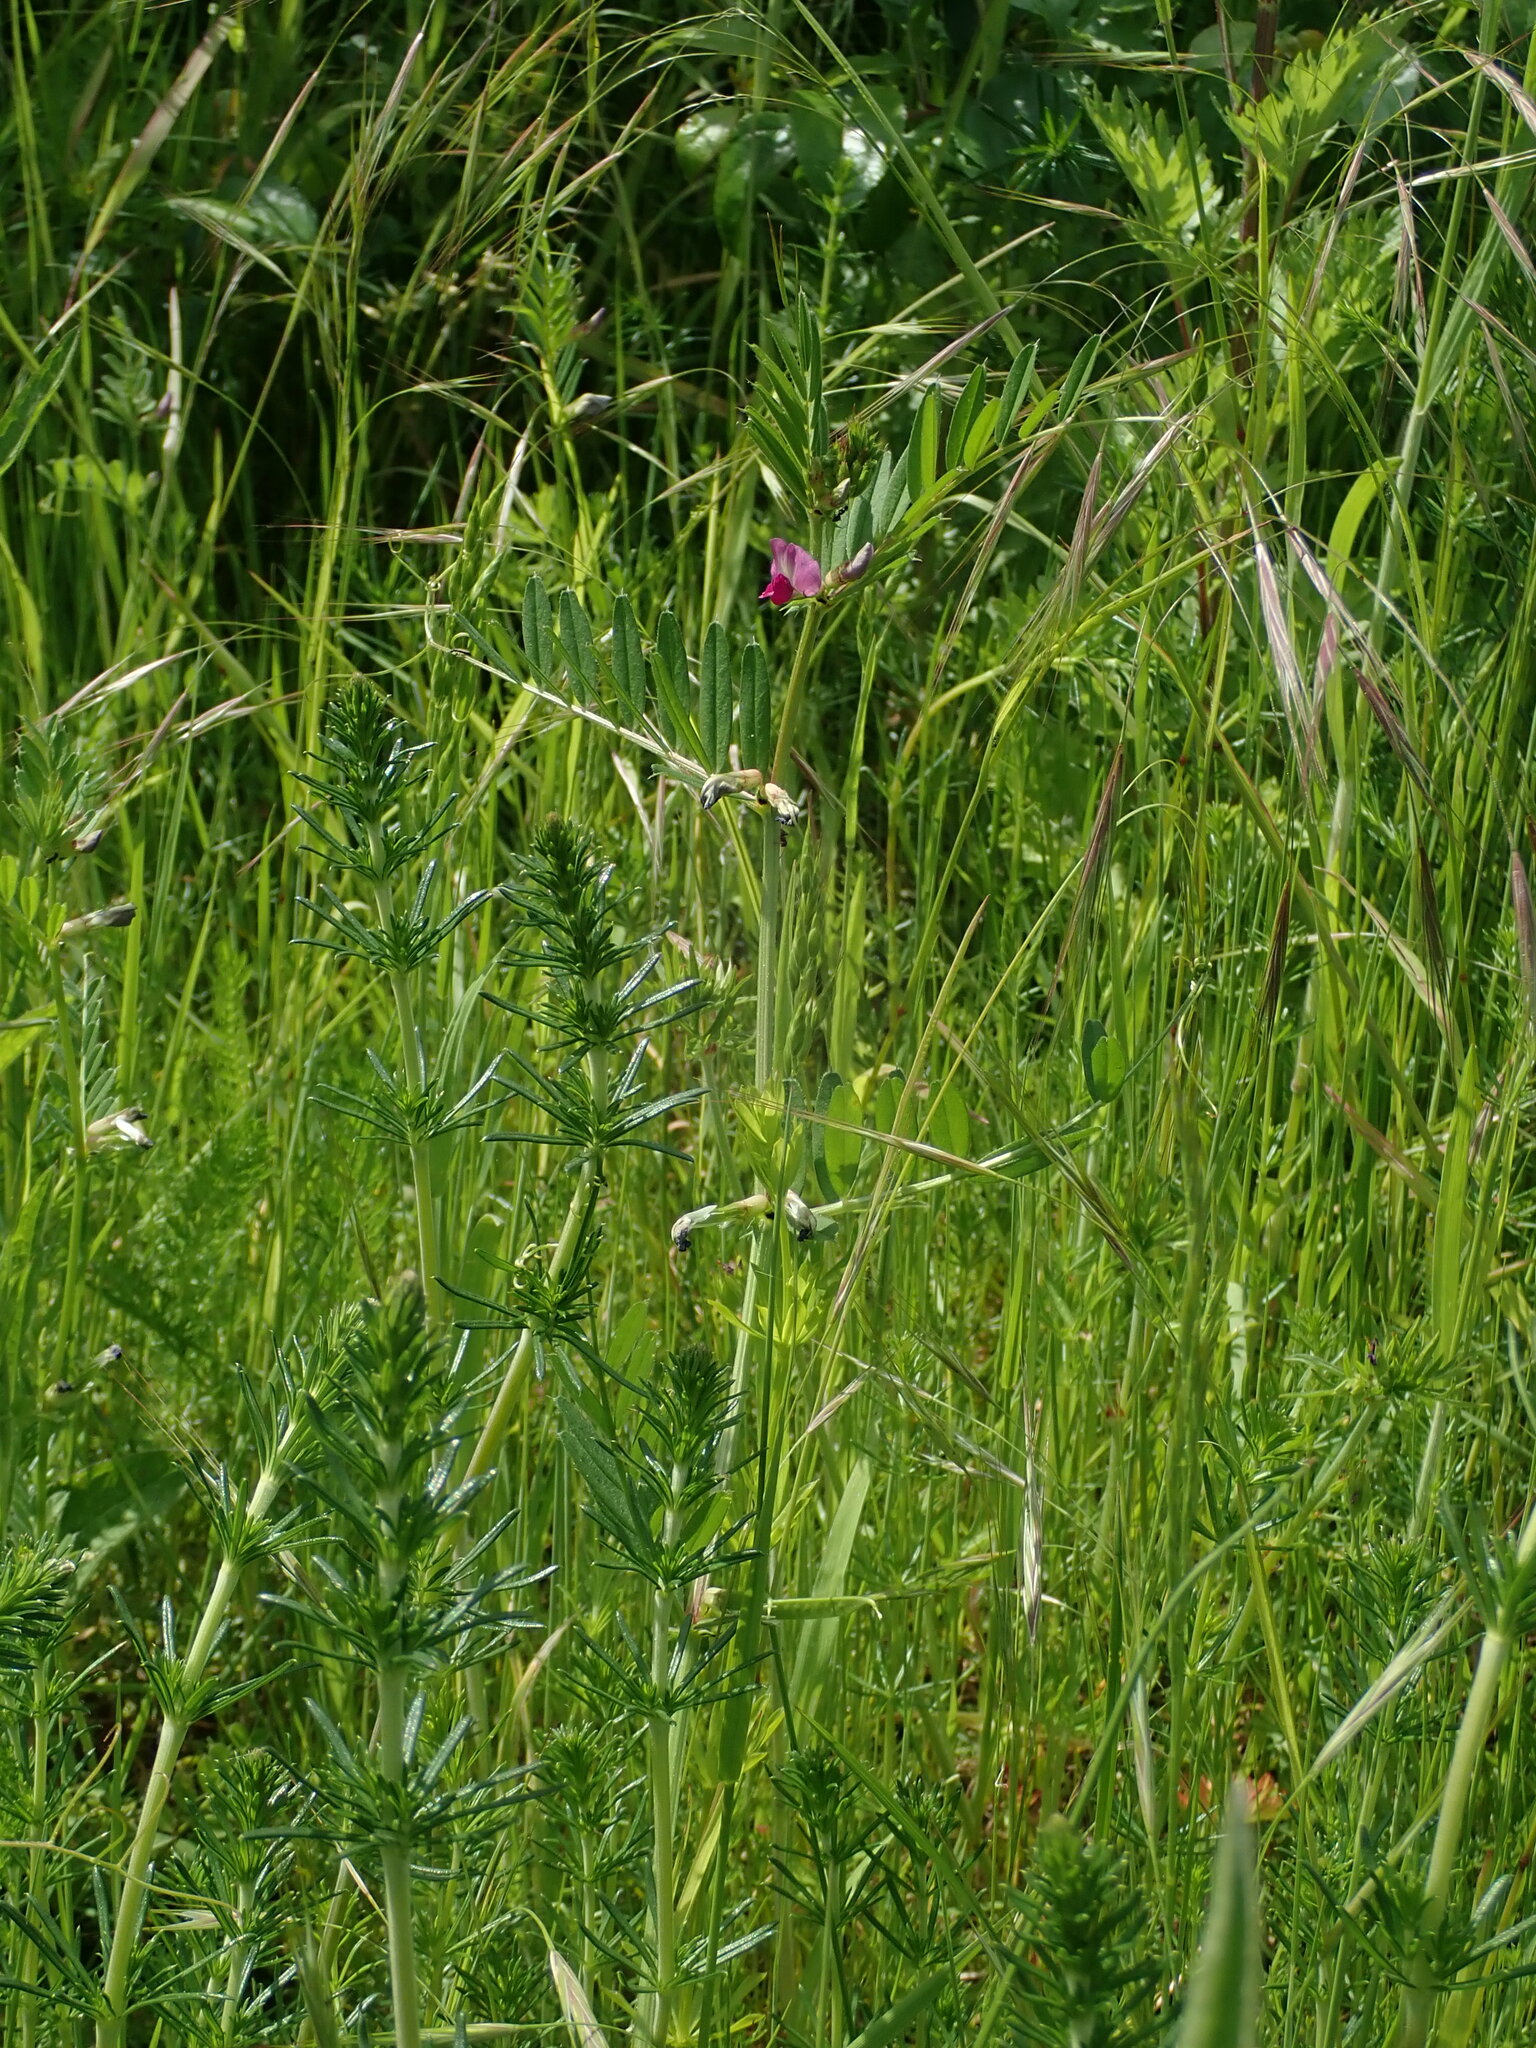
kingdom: Plantae
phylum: Tracheophyta
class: Magnoliopsida
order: Fabales
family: Fabaceae
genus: Vicia
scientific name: Vicia sativa
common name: Garden vetch
